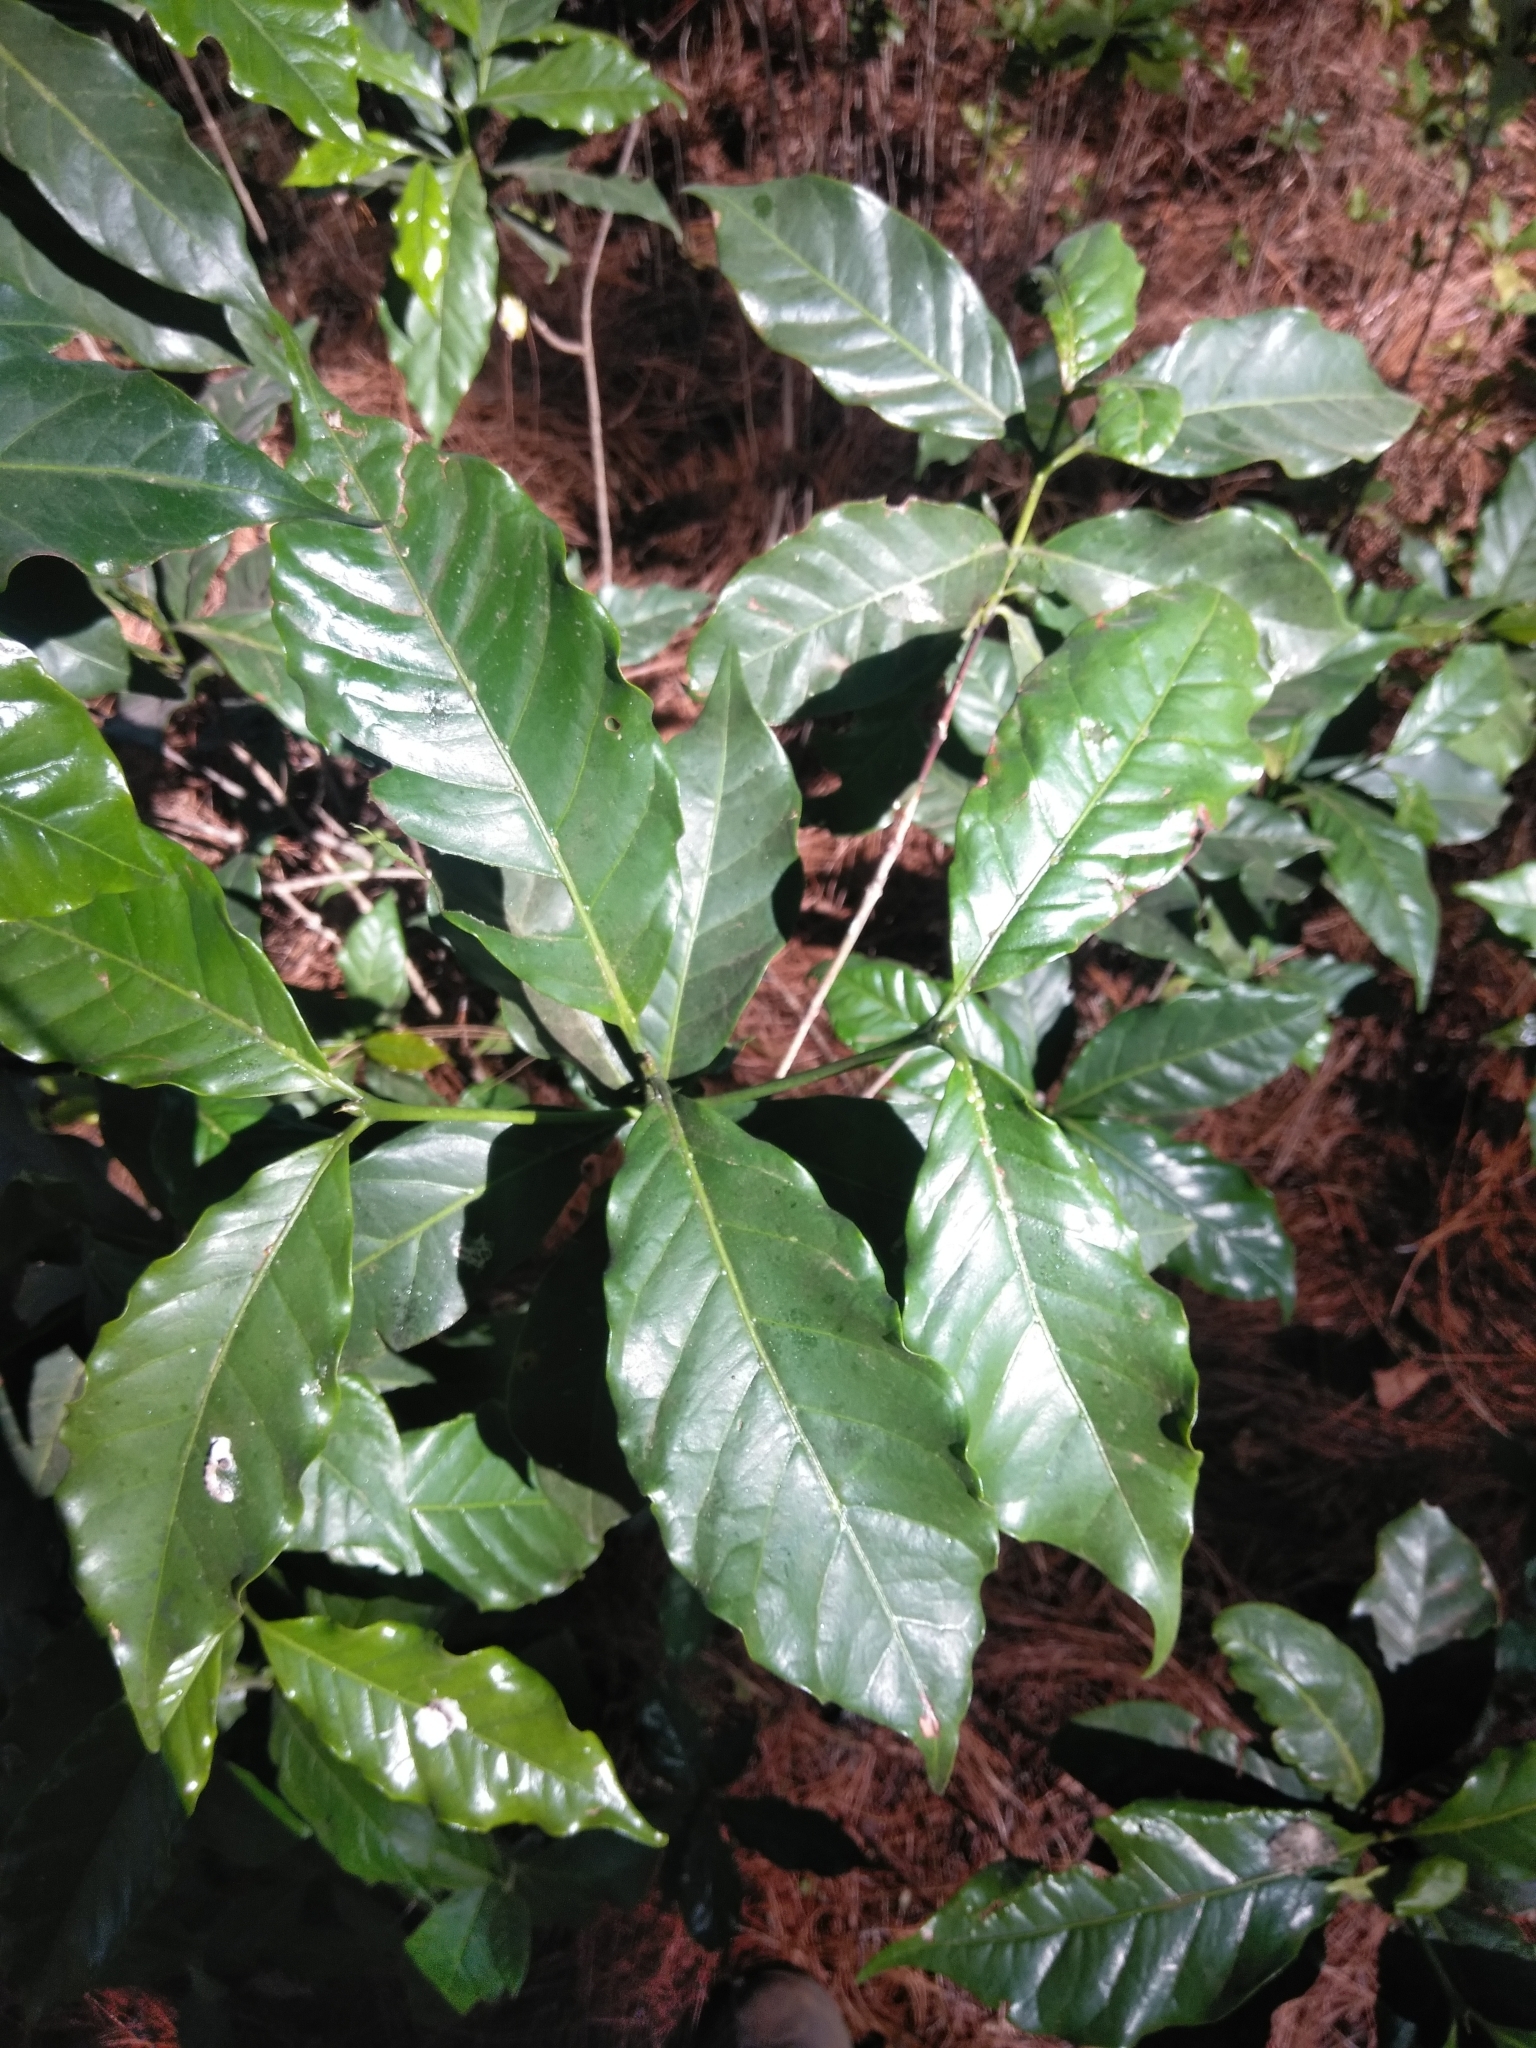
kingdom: Plantae
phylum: Tracheophyta
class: Magnoliopsida
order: Gentianales
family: Rubiaceae
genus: Coffea
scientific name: Coffea arabica
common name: Coffee
